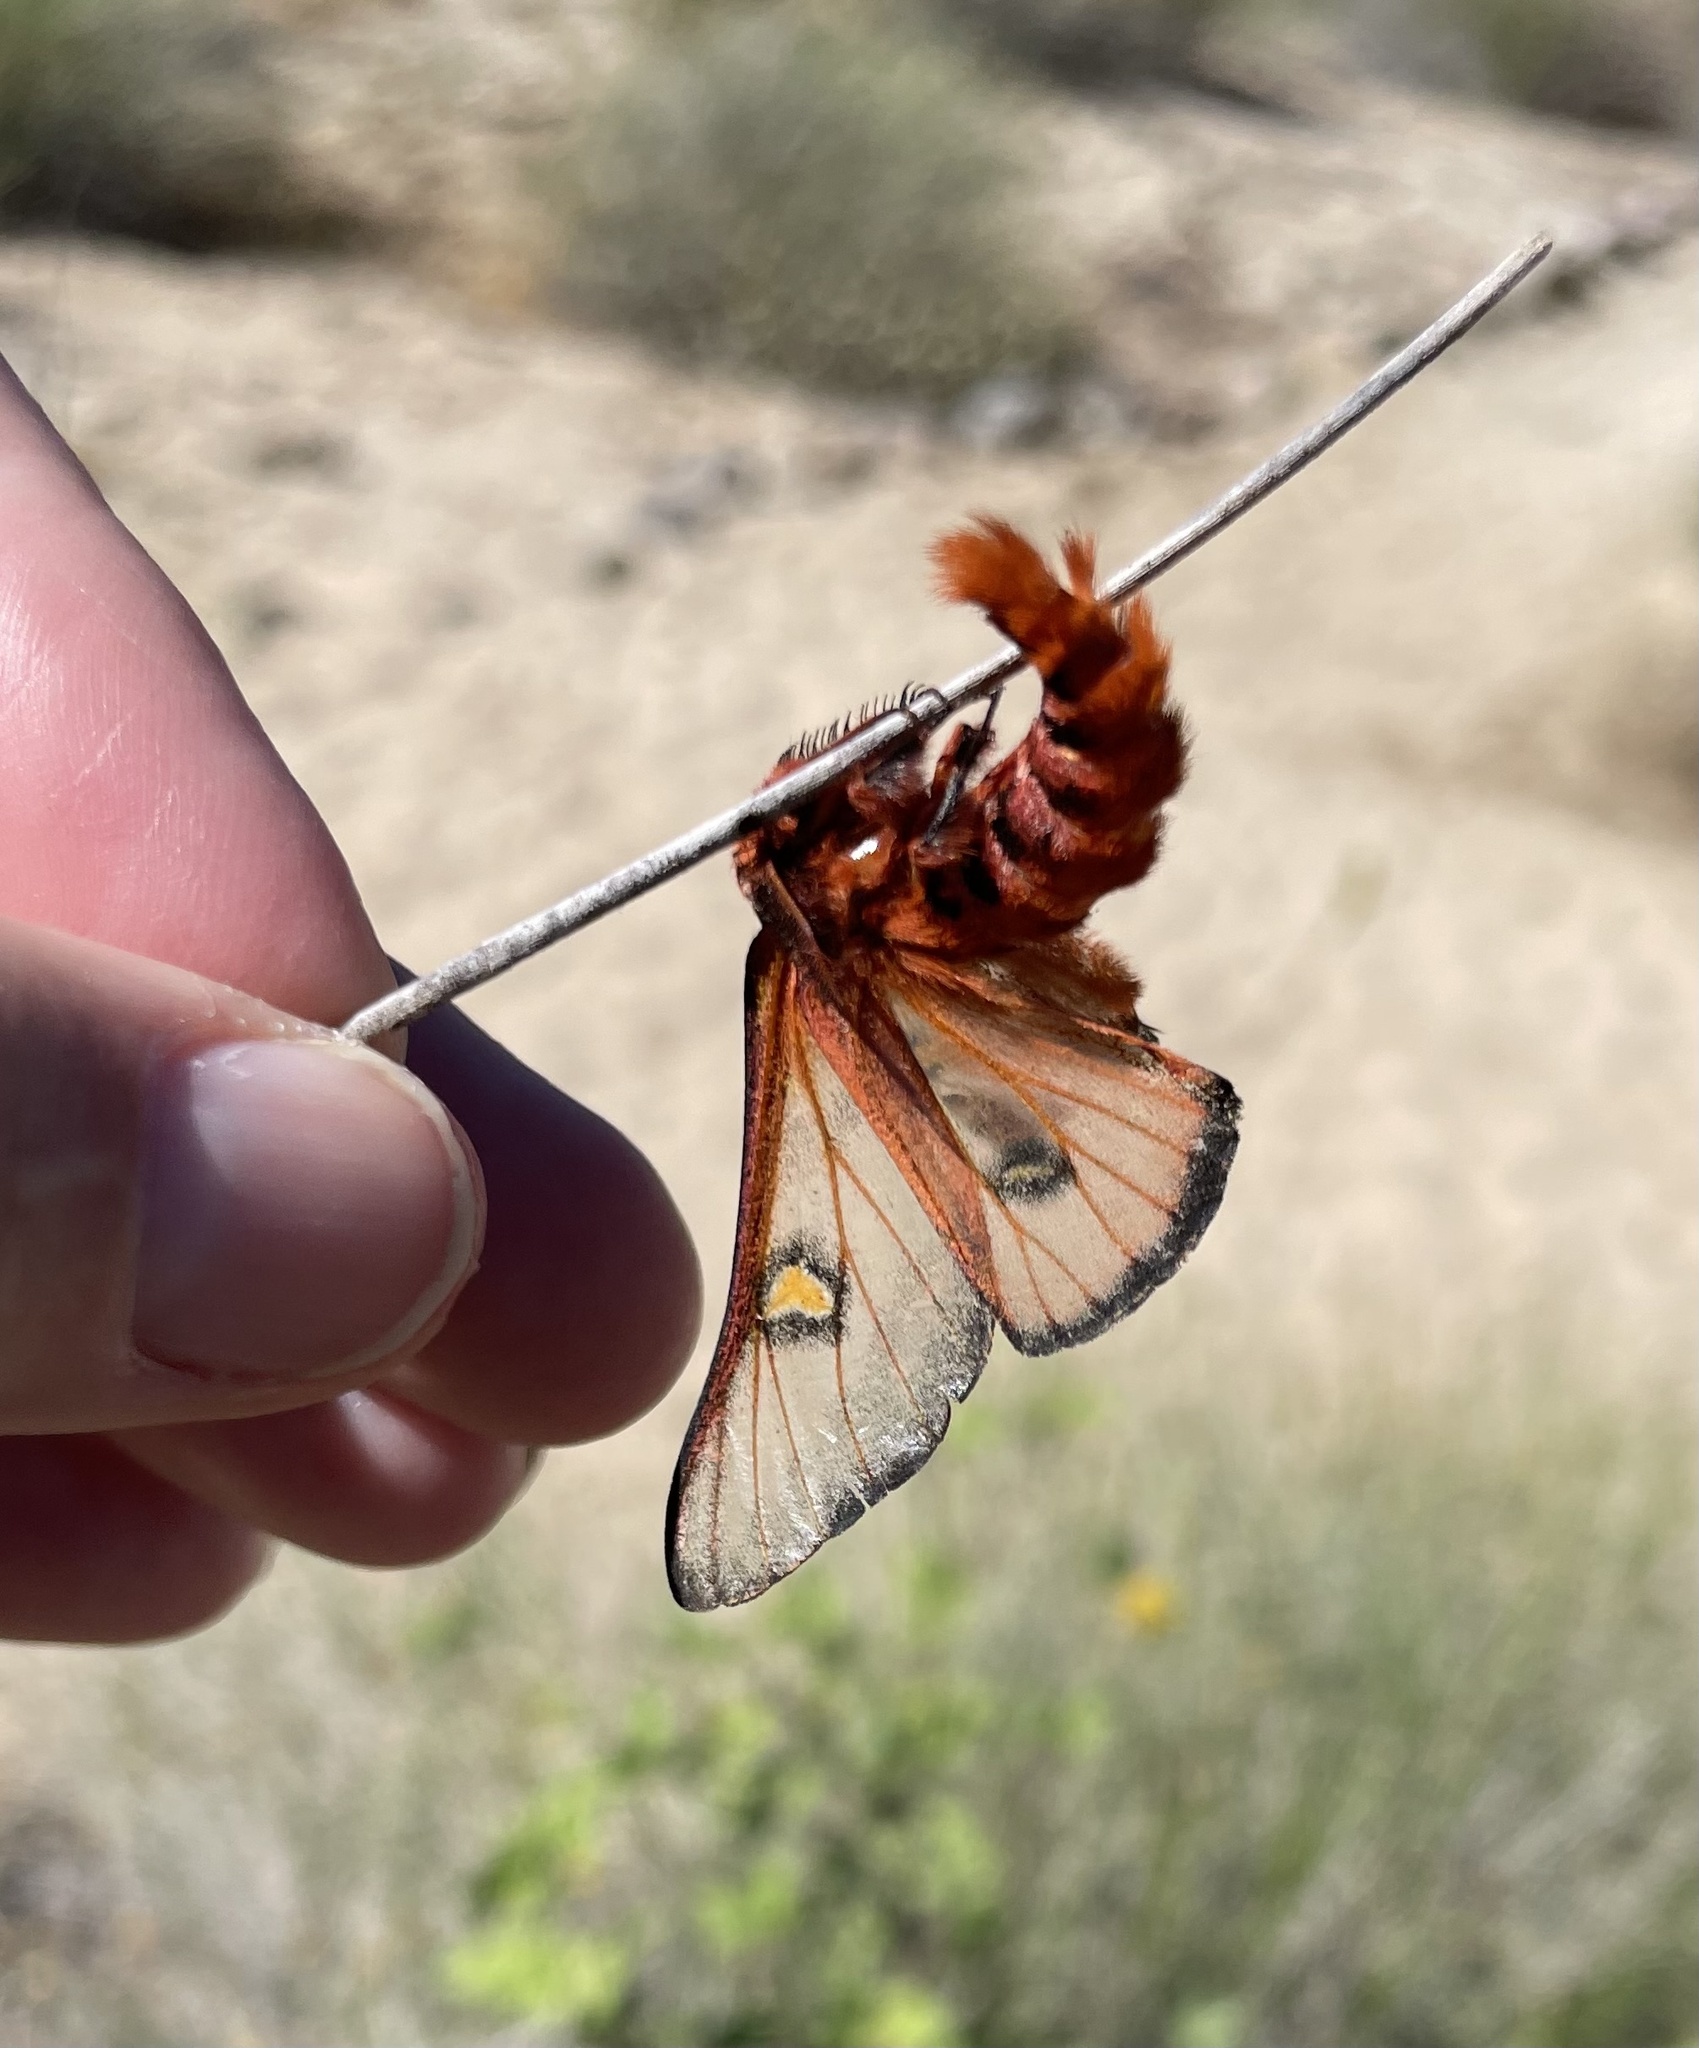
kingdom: Animalia
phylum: Arthropoda
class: Insecta
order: Lepidoptera
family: Saturniidae
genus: Hemileuca
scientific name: Hemileuca electra
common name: Electra buckmoth
